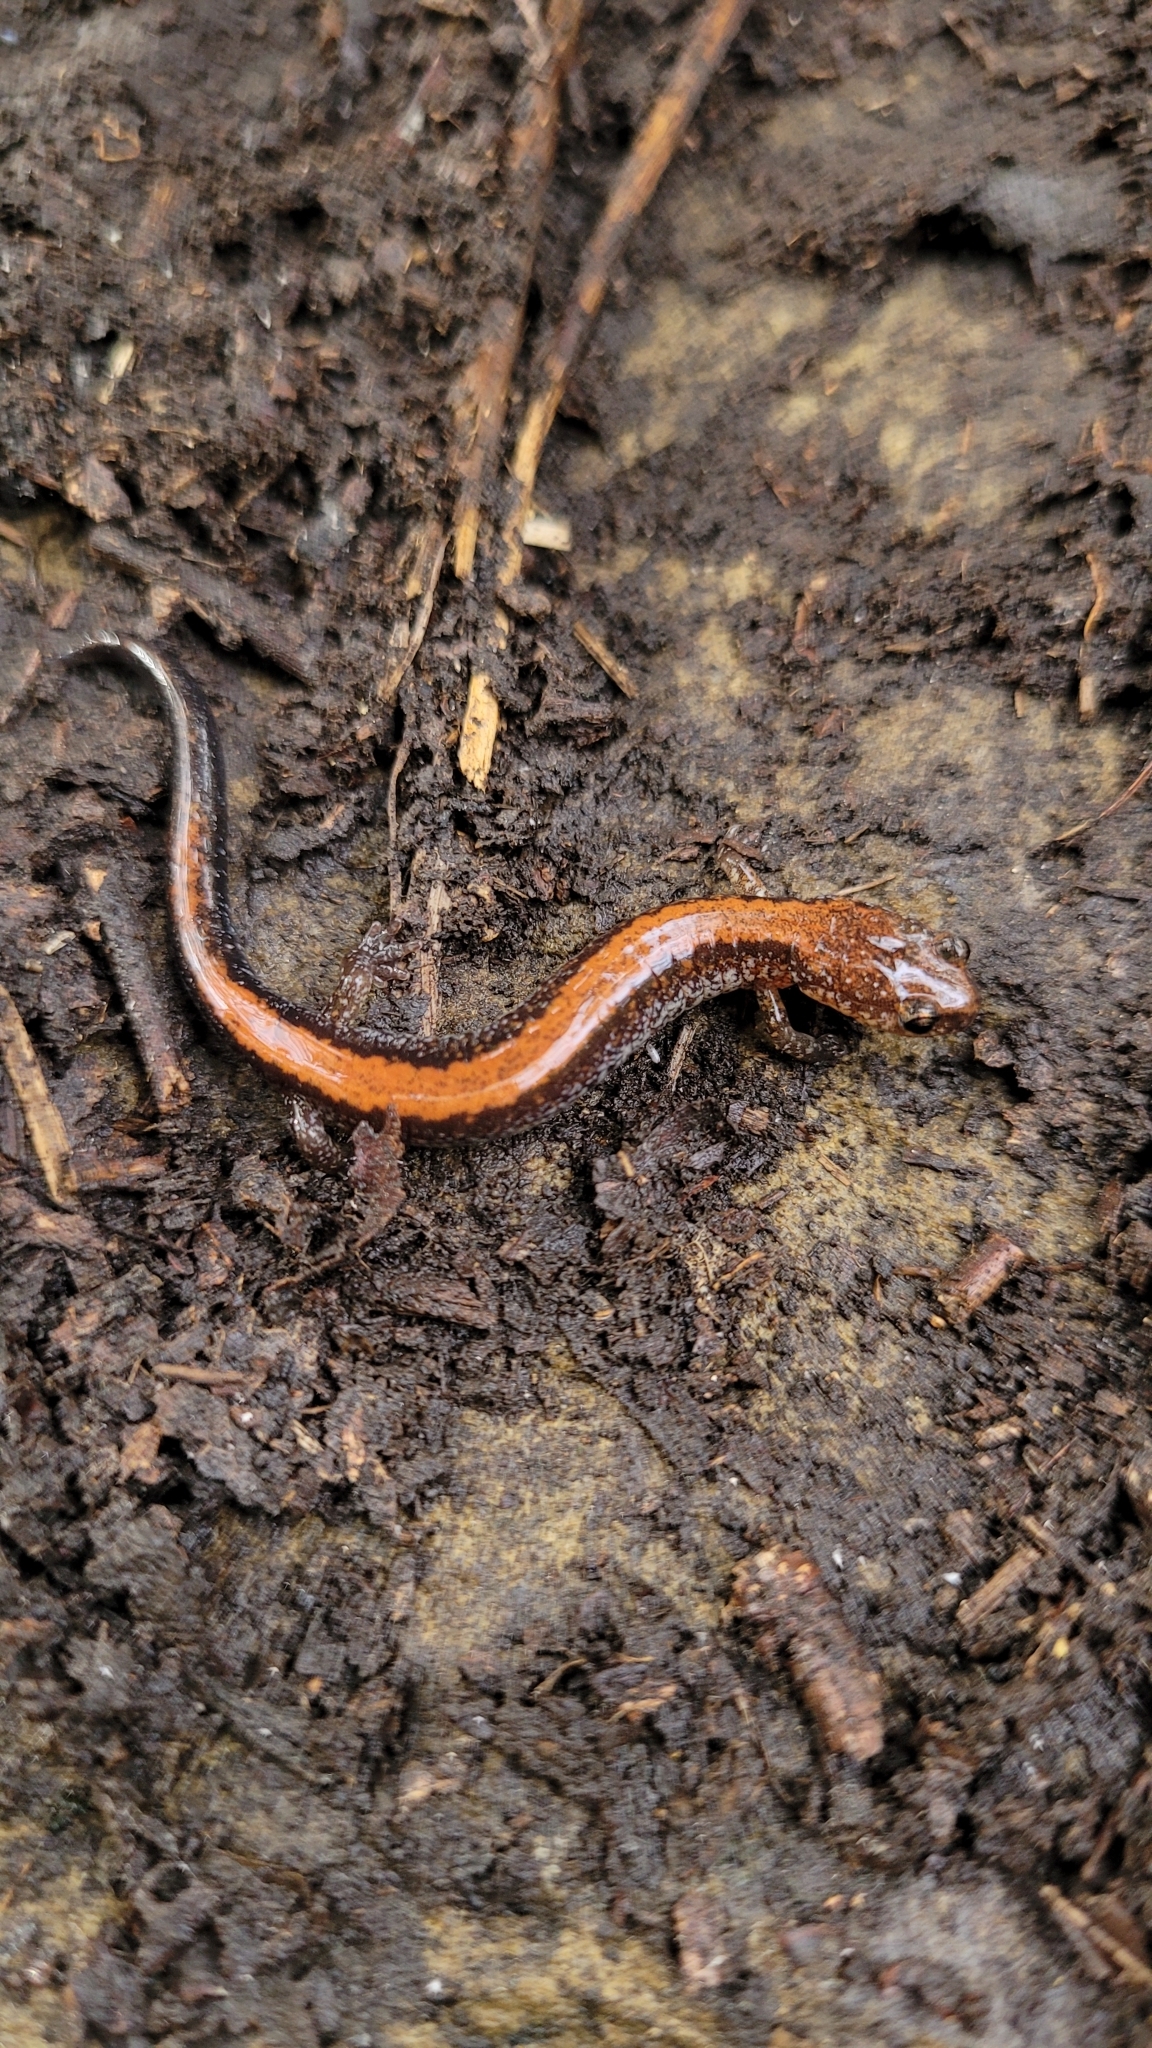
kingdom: Animalia
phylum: Chordata
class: Amphibia
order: Caudata
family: Plethodontidae
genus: Plethodon
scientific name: Plethodon cinereus
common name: Redback salamander
